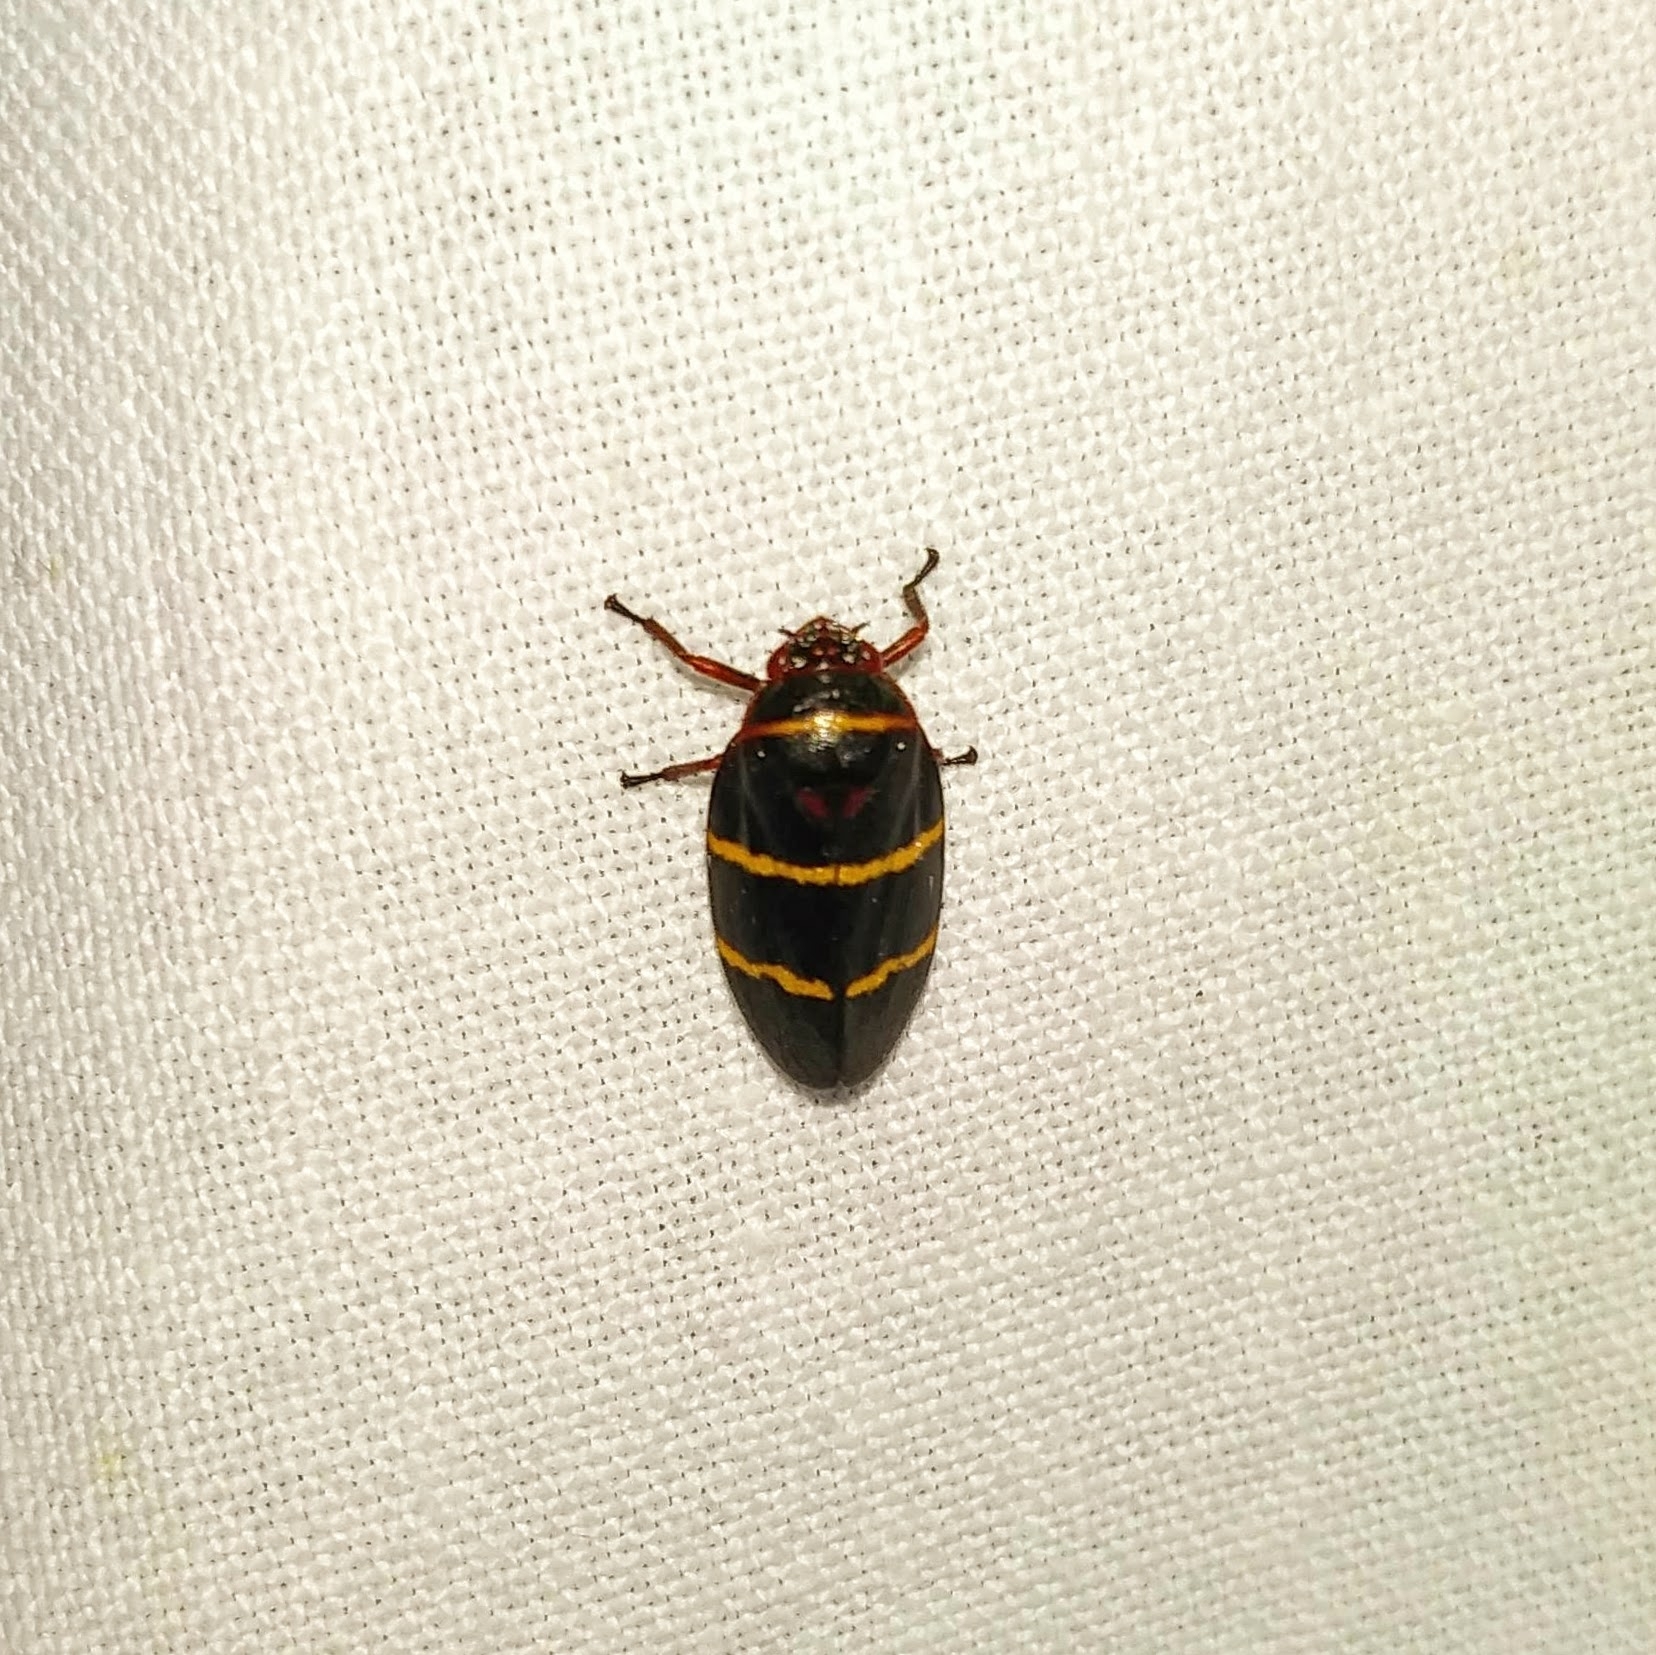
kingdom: Animalia
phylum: Arthropoda
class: Insecta
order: Hemiptera
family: Cercopidae
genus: Prosapia
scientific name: Prosapia bicincta
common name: Twolined spittlebug
